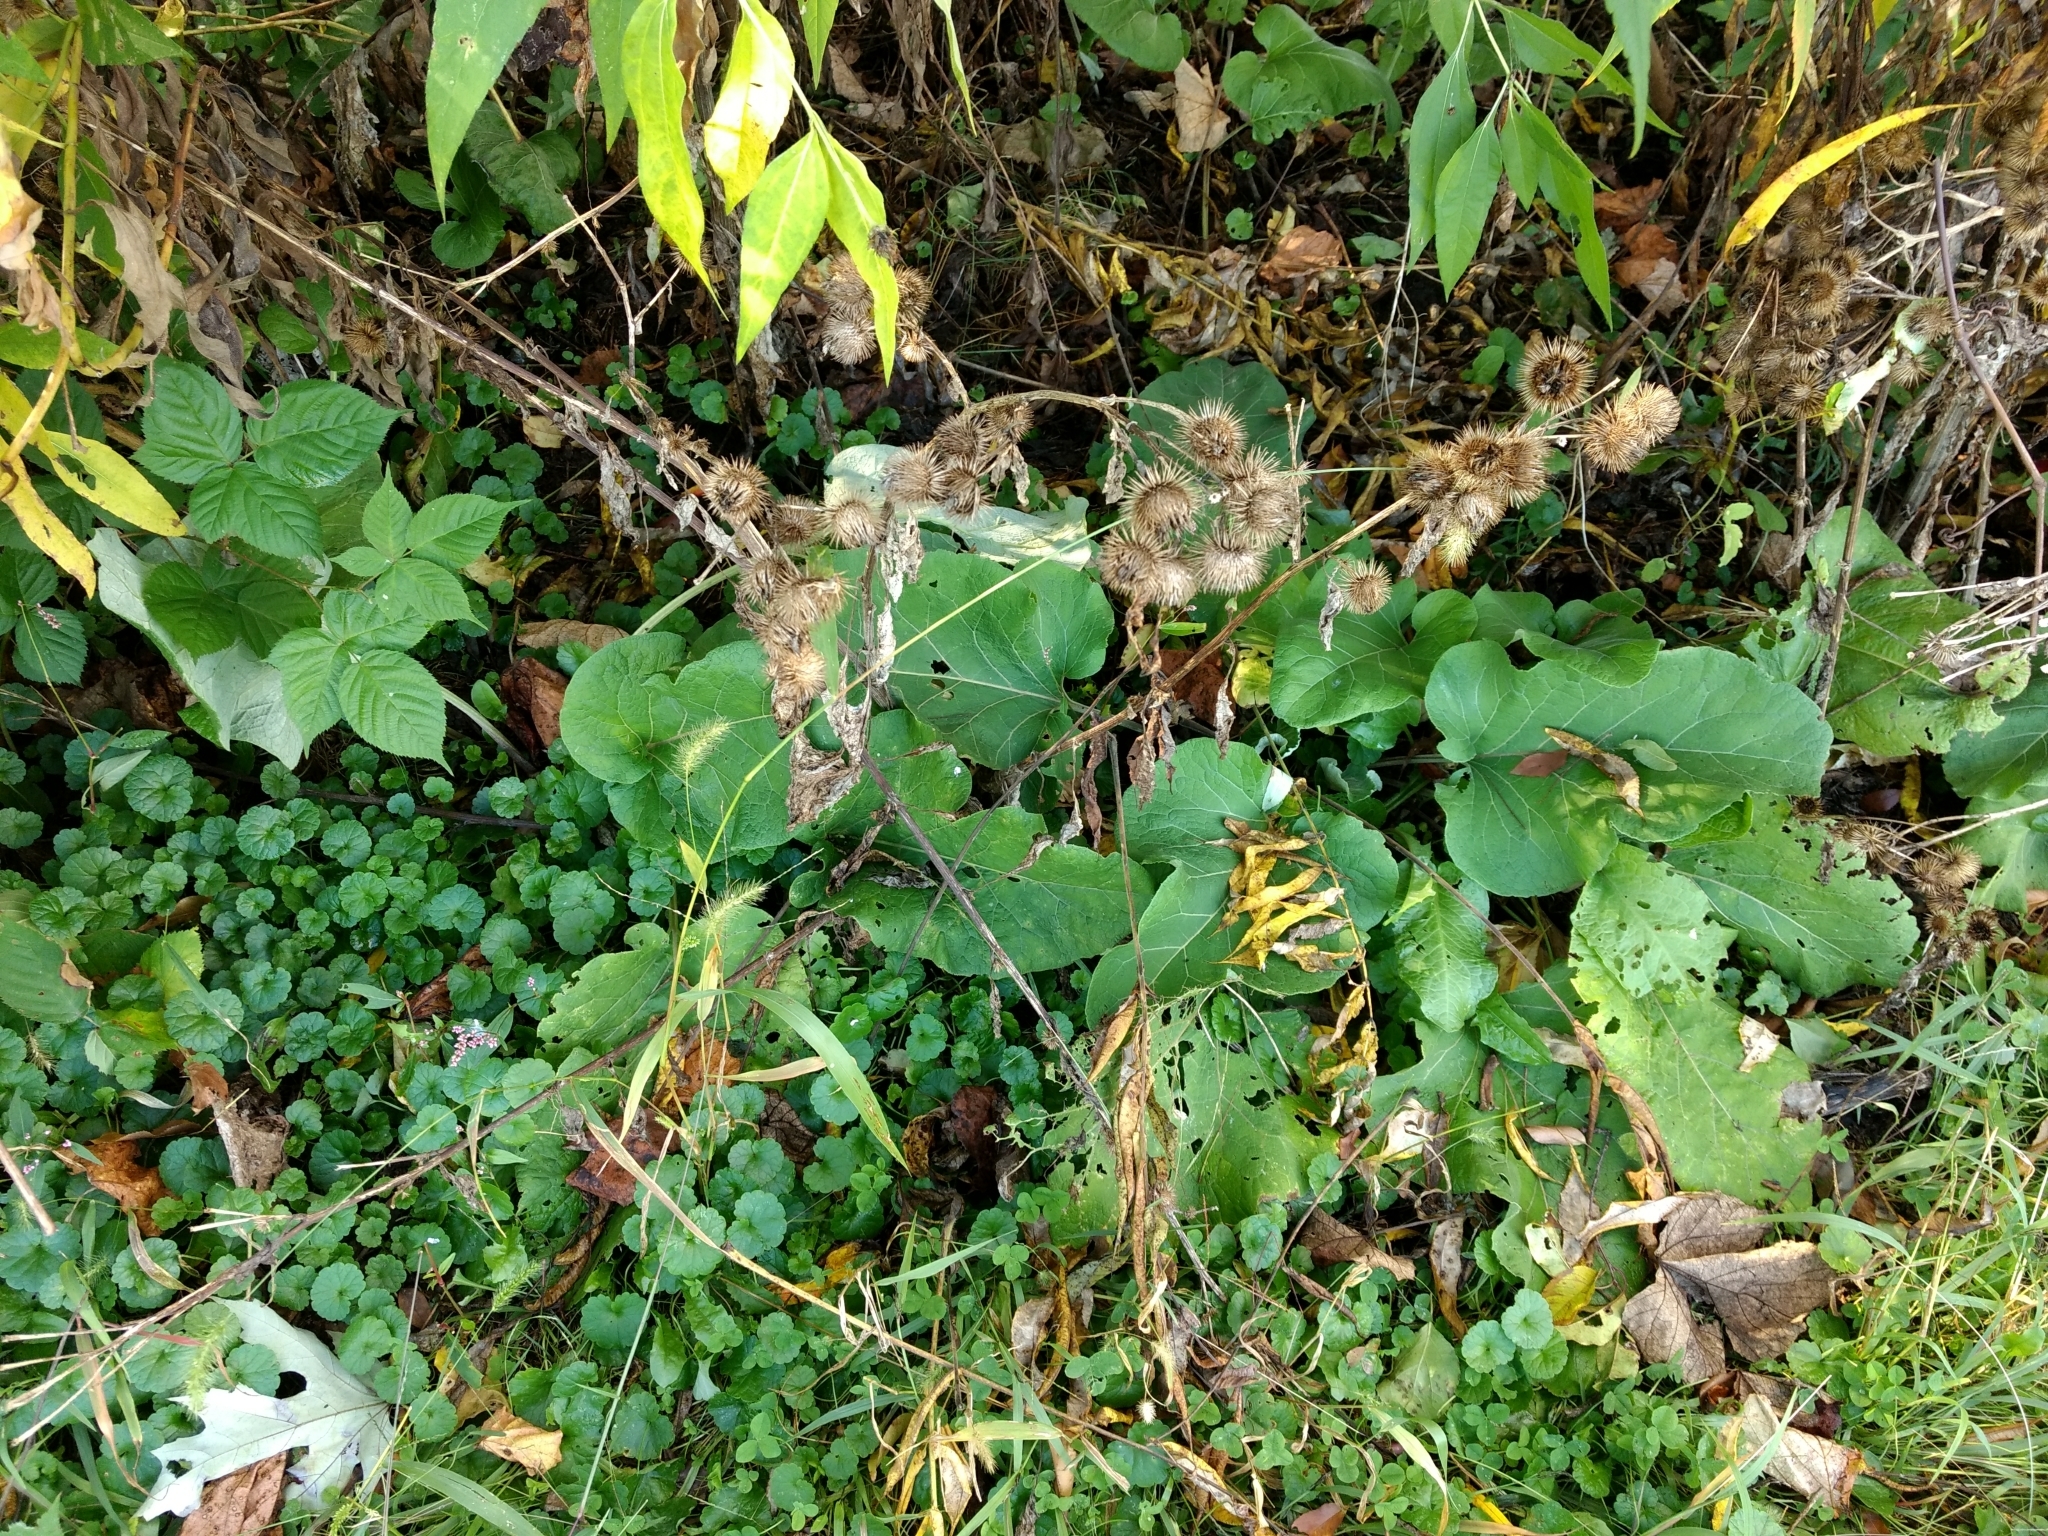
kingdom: Plantae
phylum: Tracheophyta
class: Magnoliopsida
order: Asterales
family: Asteraceae
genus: Arctium
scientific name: Arctium
